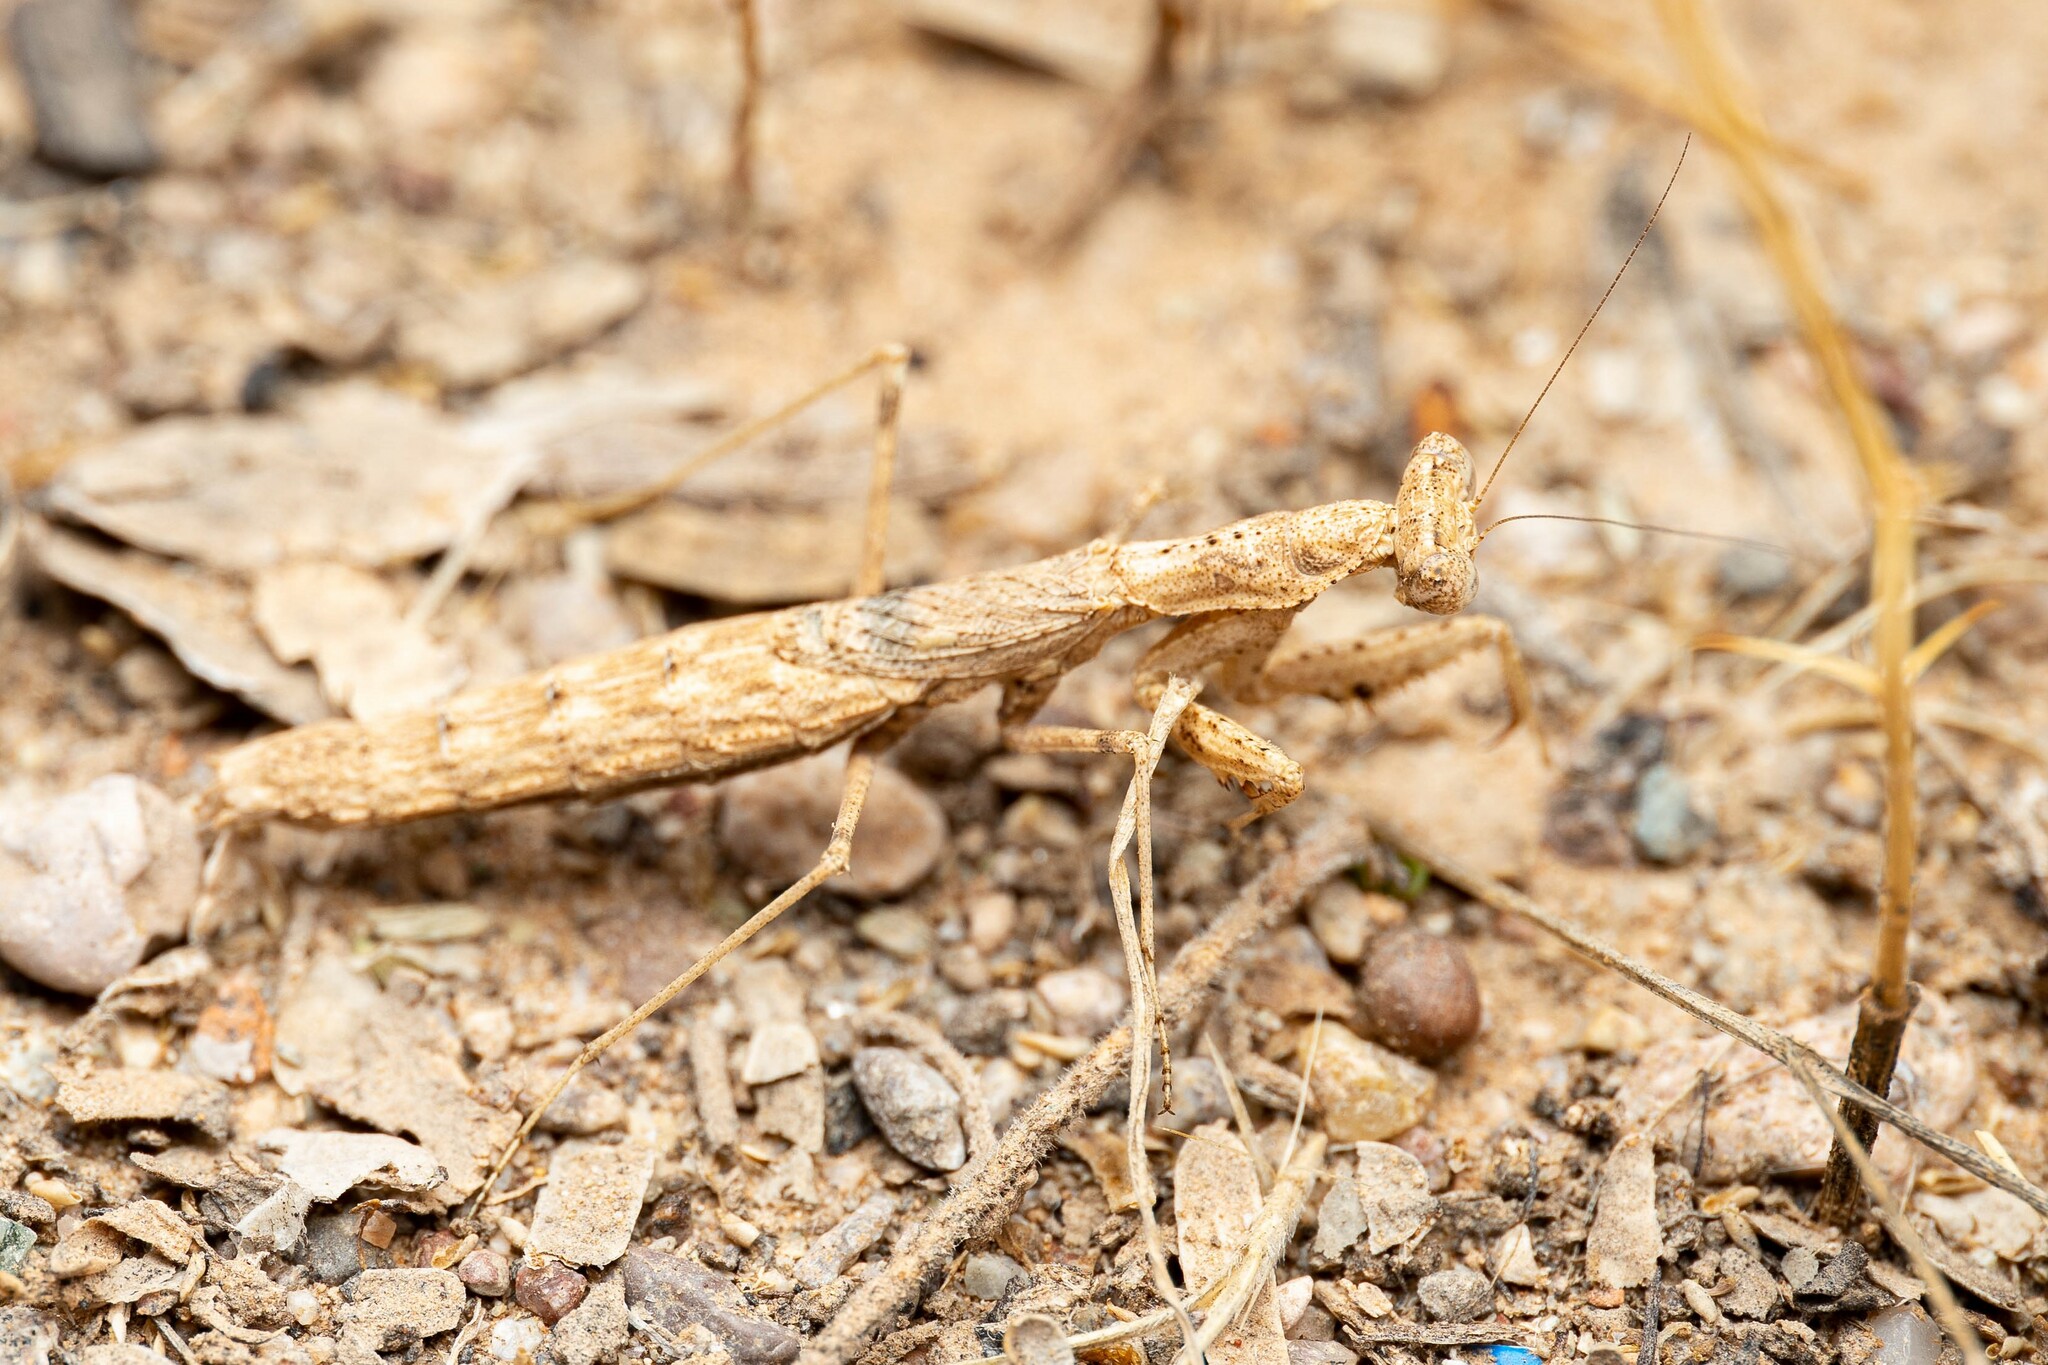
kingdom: Animalia
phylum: Arthropoda
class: Insecta
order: Mantodea
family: Amelidae
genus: Litaneutria
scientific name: Litaneutria ocularis
